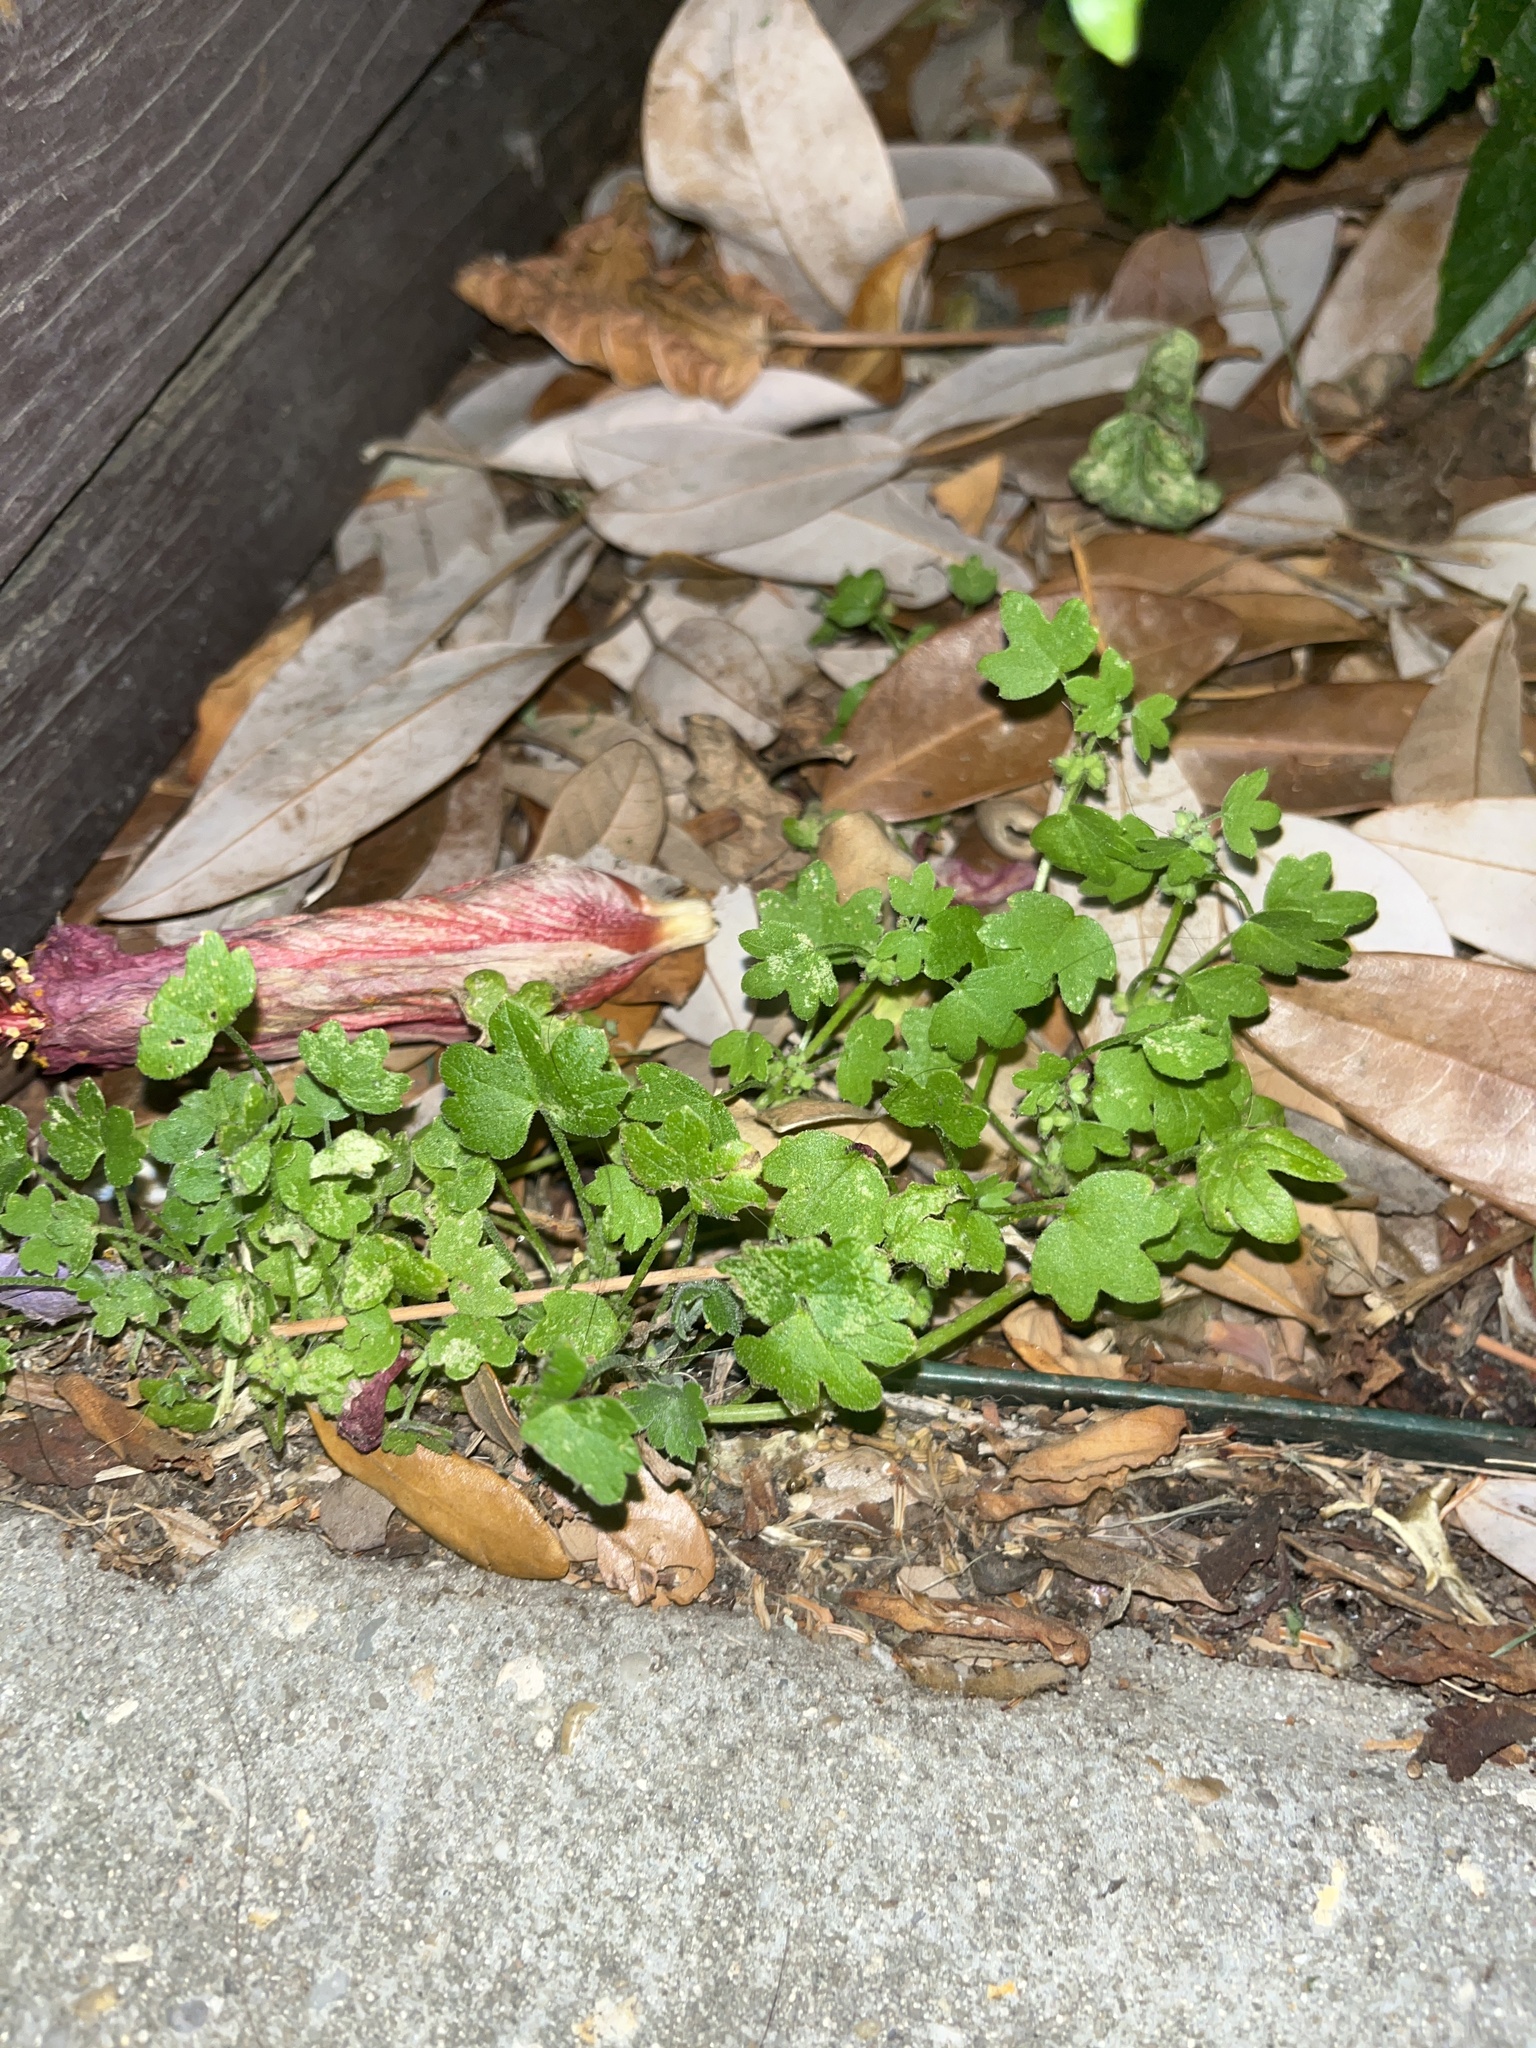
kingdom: Plantae
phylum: Tracheophyta
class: Magnoliopsida
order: Apiales
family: Apiaceae
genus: Bowlesia
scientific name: Bowlesia incana
